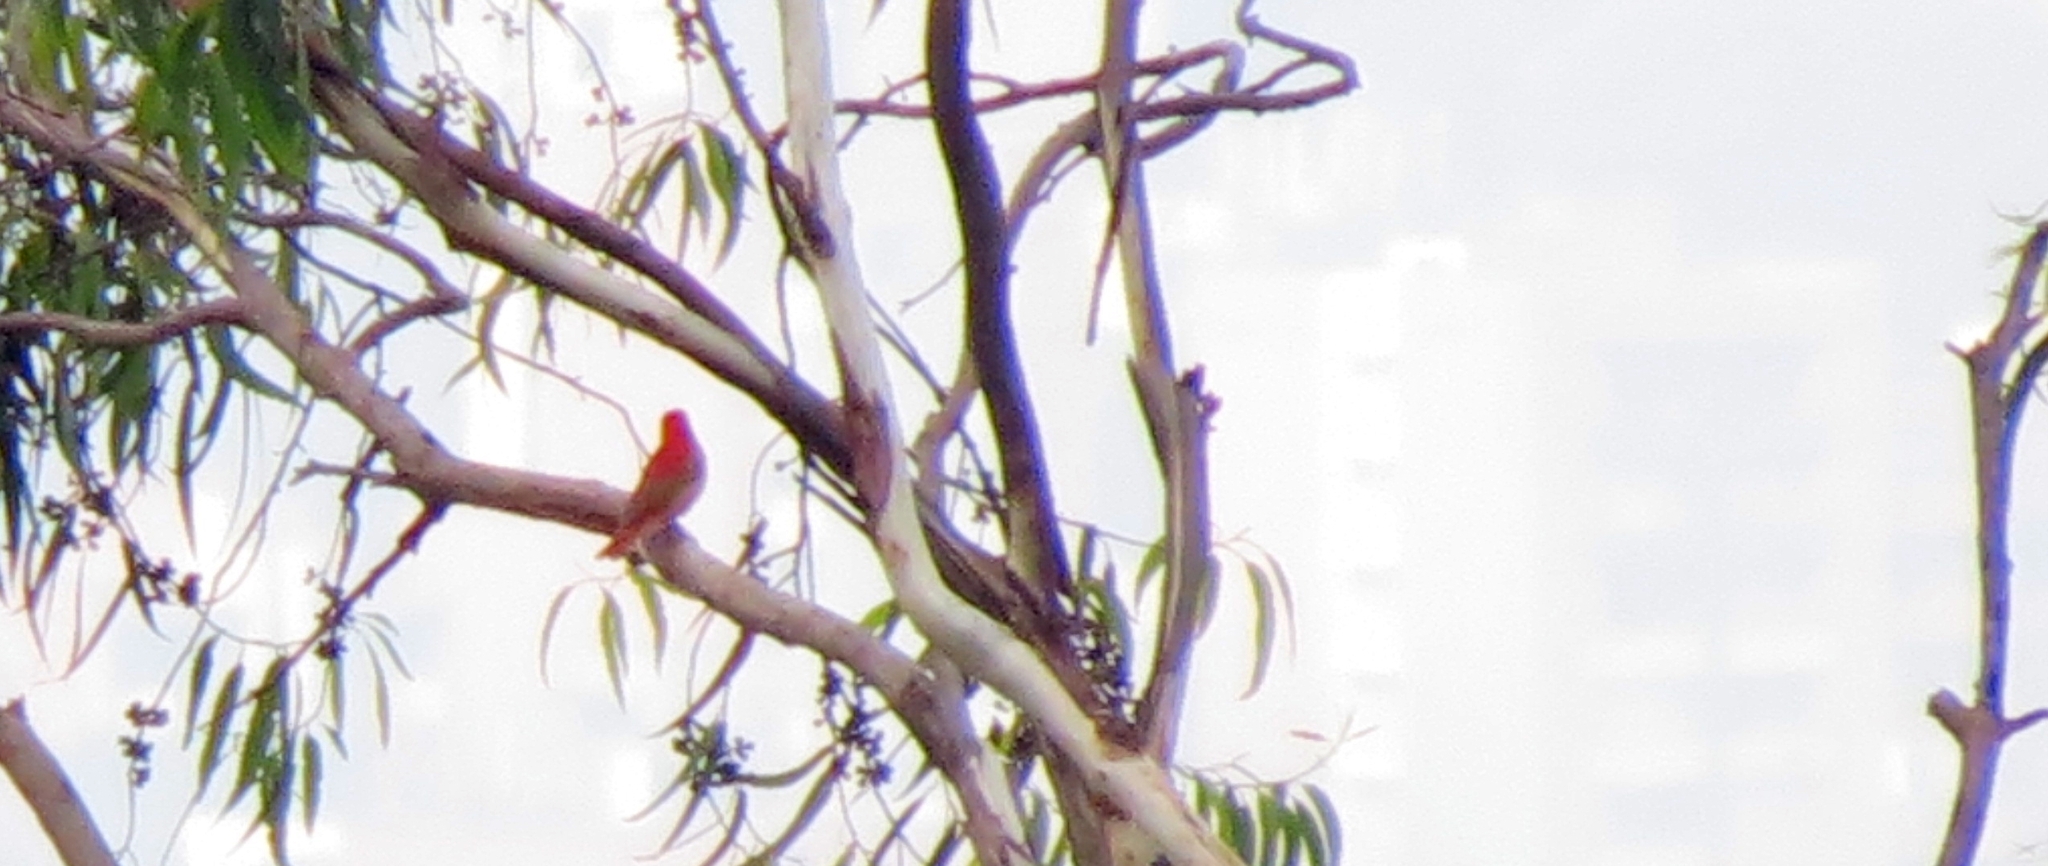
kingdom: Animalia
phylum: Chordata
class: Aves
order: Passeriformes
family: Cardinalidae
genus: Piranga
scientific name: Piranga rubra
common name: Summer tanager
